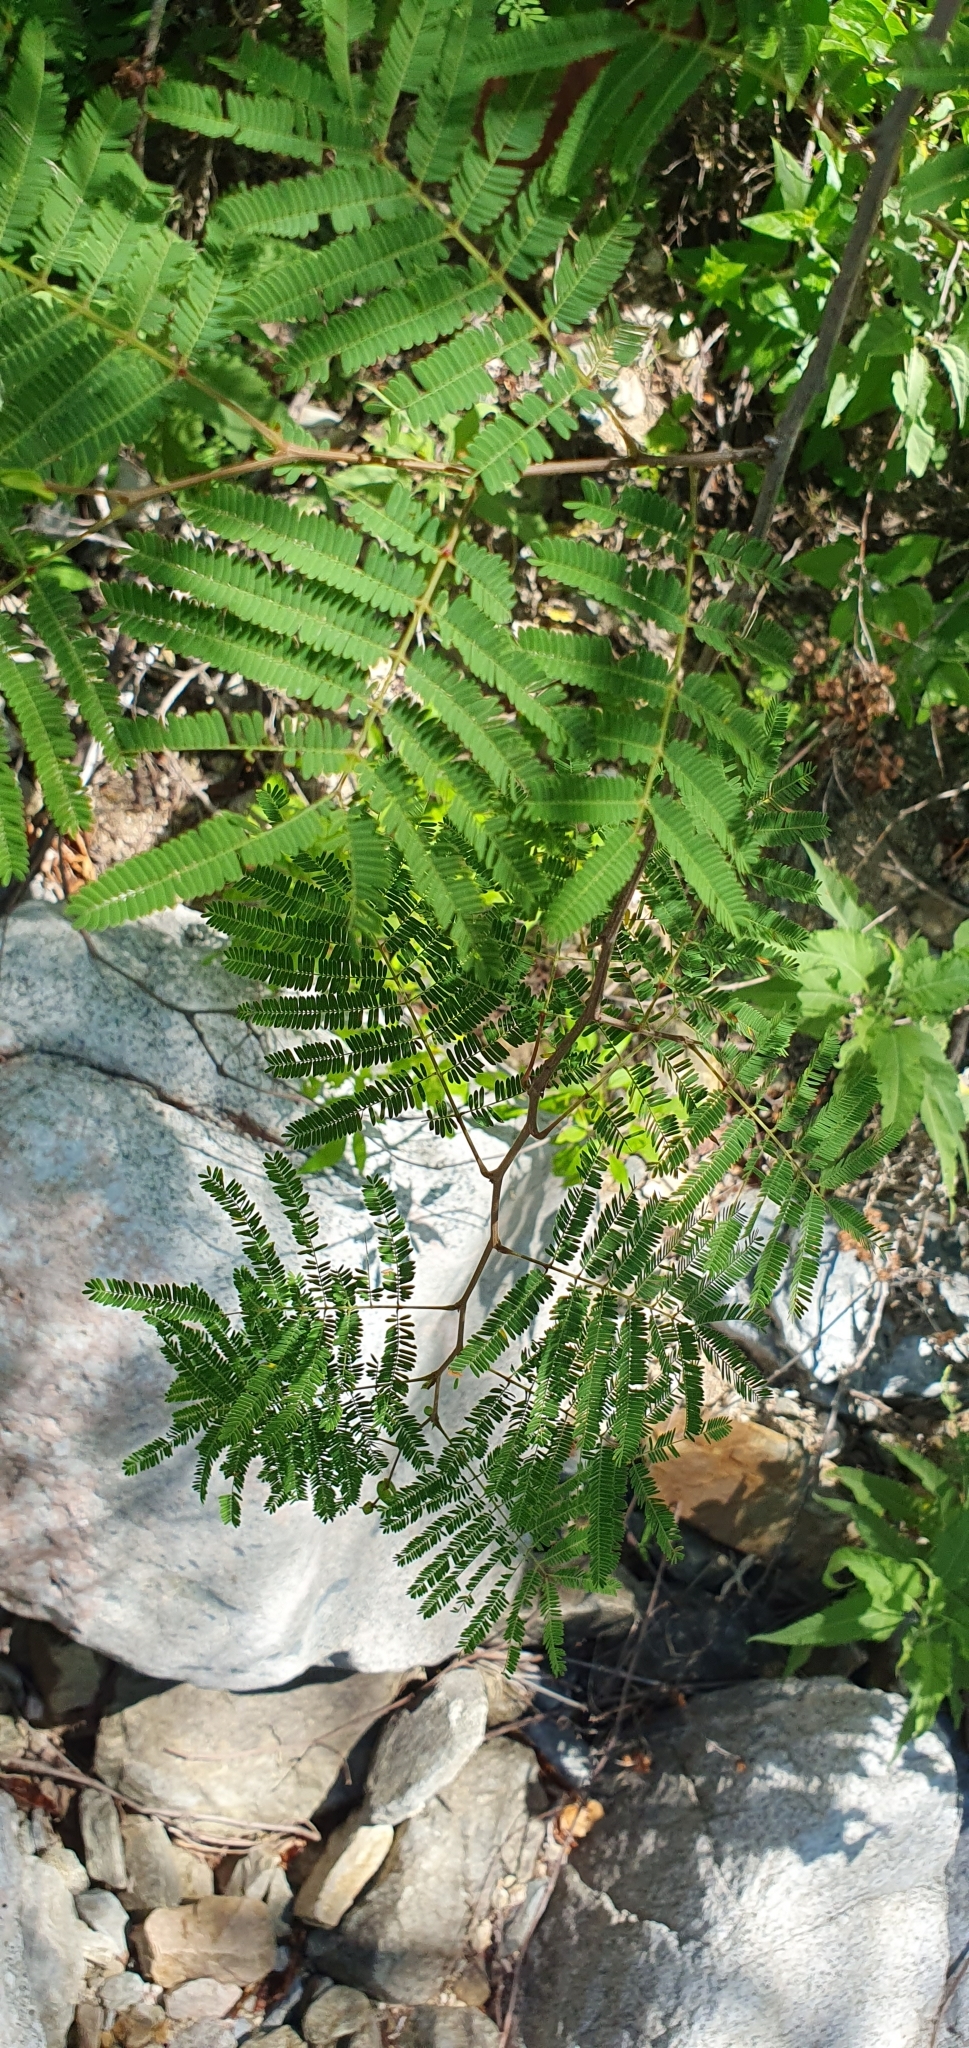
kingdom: Plantae
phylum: Tracheophyta
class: Magnoliopsida
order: Fabales
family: Fabaceae
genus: Lysiloma
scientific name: Lysiloma divaricatum
